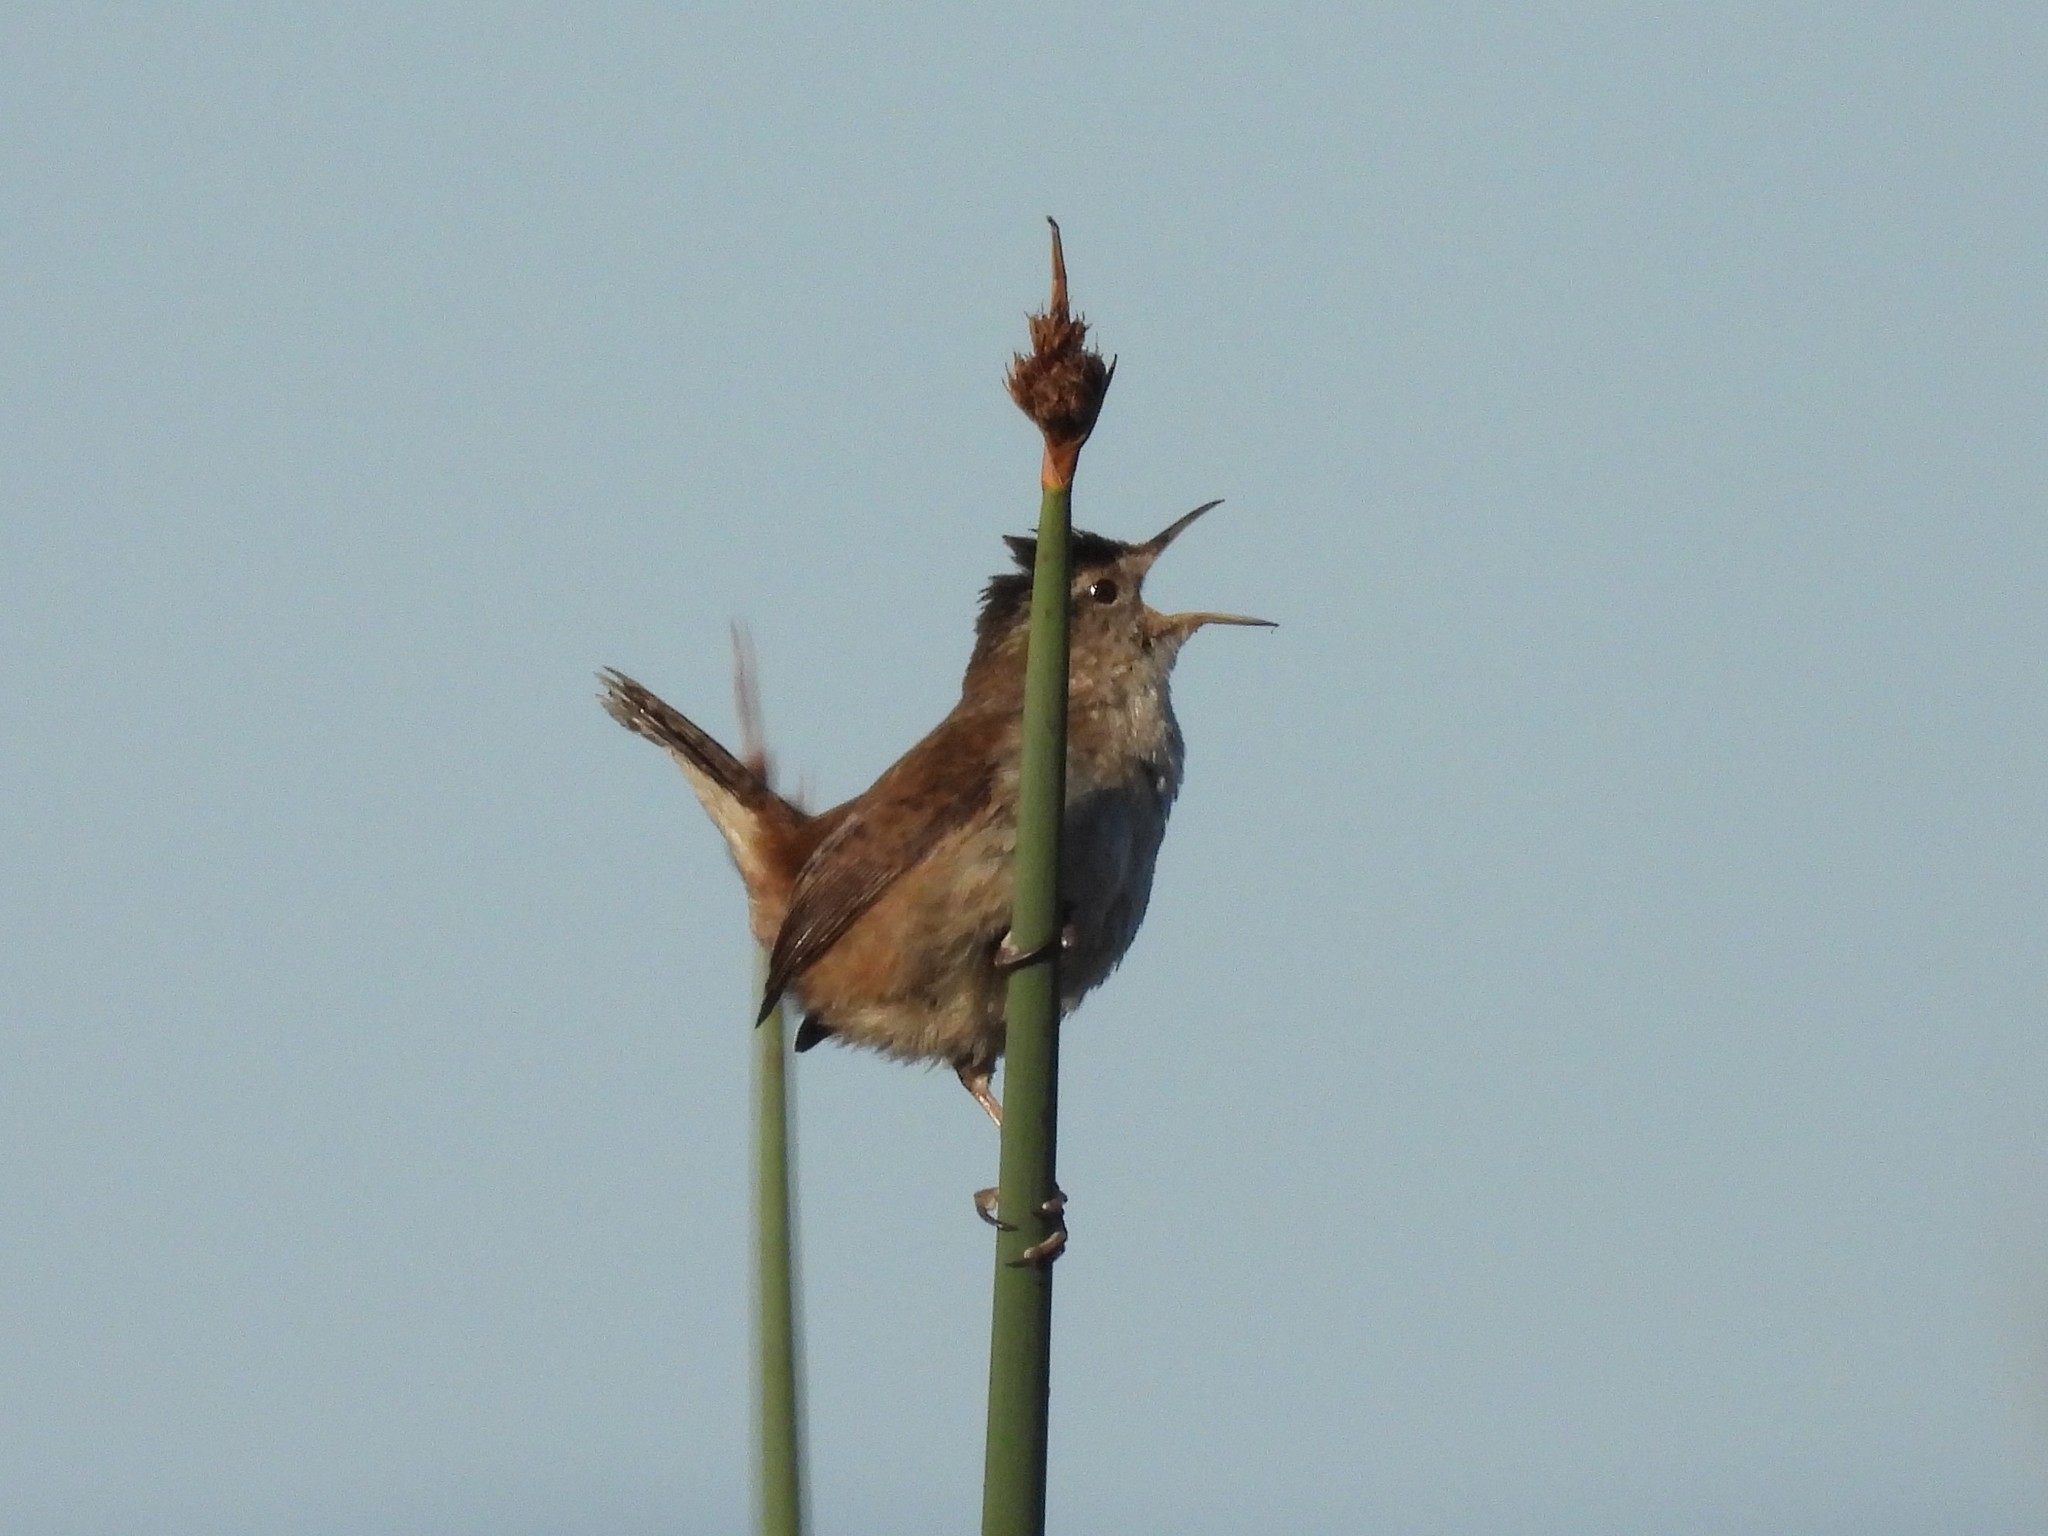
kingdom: Animalia
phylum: Chordata
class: Aves
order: Passeriformes
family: Troglodytidae
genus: Cistothorus
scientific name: Cistothorus palustris
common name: Marsh wren
